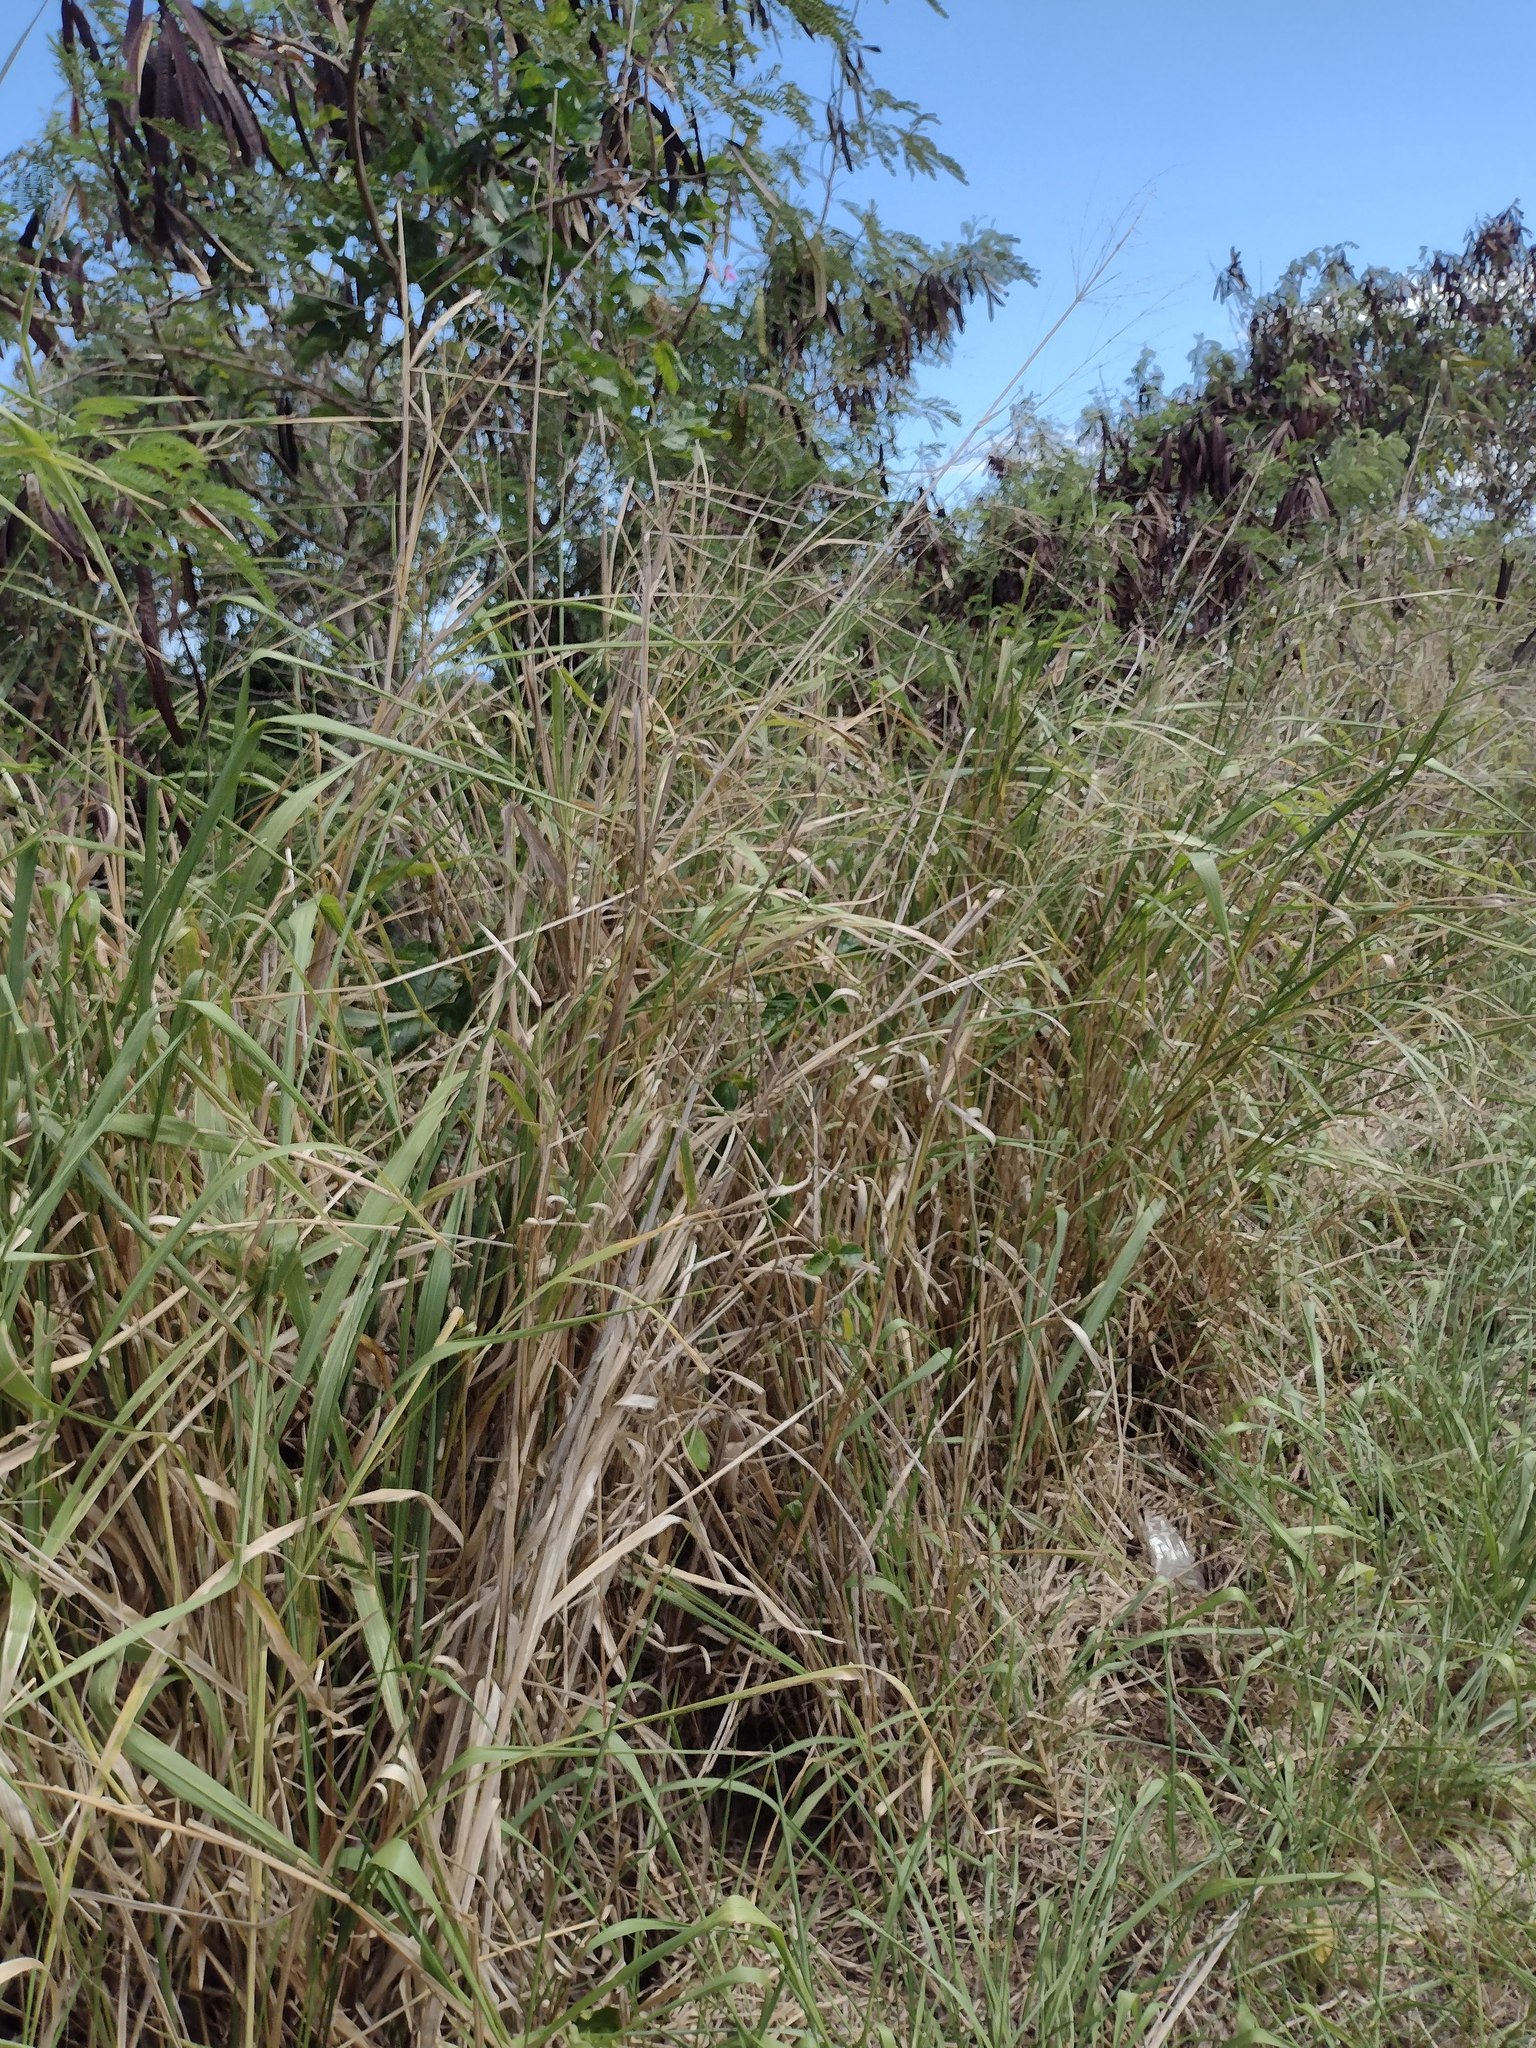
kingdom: Plantae
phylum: Tracheophyta
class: Liliopsida
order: Poales
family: Poaceae
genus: Megathyrsus
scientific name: Megathyrsus maximus
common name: Guineagrass
